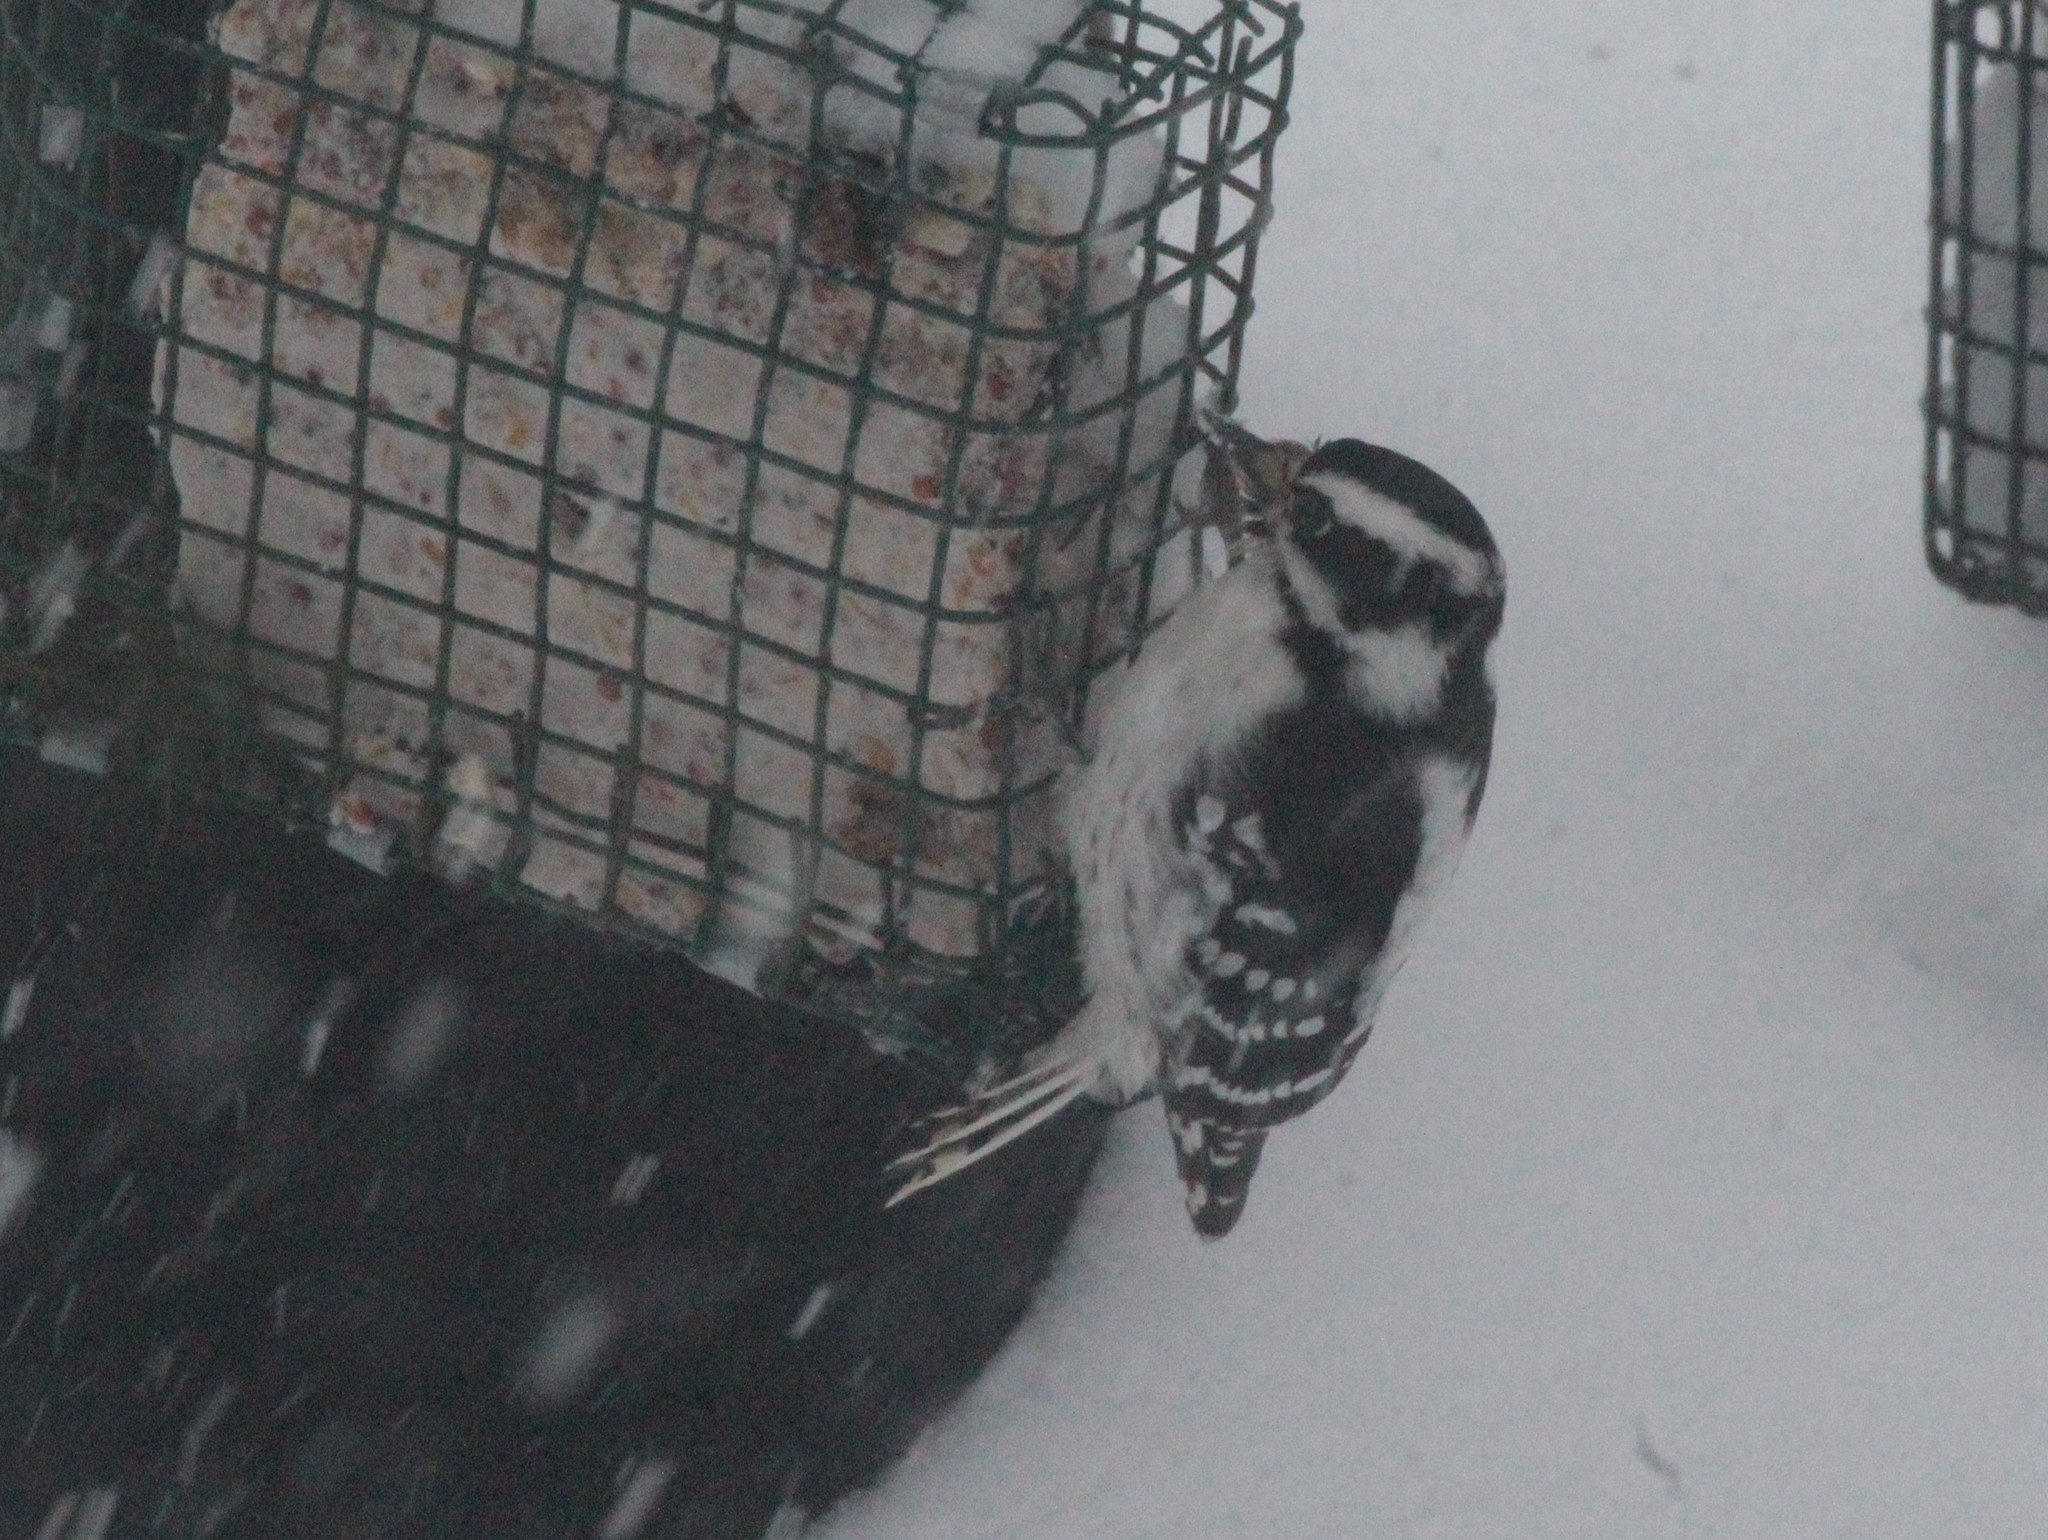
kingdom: Animalia
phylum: Chordata
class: Aves
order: Piciformes
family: Picidae
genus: Dryobates
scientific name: Dryobates pubescens
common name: Downy woodpecker
